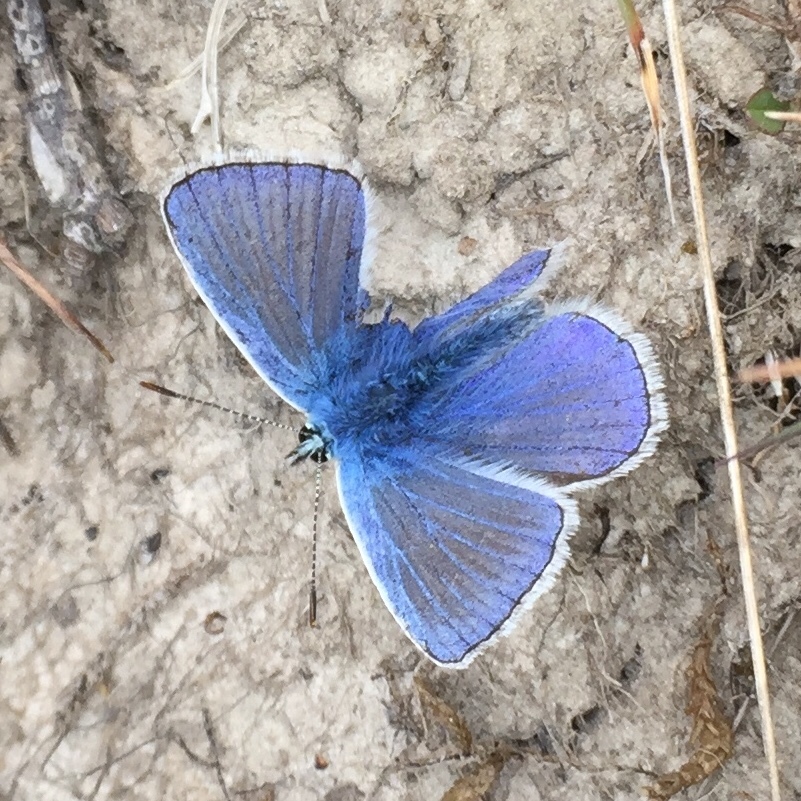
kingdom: Animalia
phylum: Arthropoda
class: Insecta
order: Lepidoptera
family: Lycaenidae
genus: Polyommatus
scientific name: Polyommatus icarus
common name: Common blue
